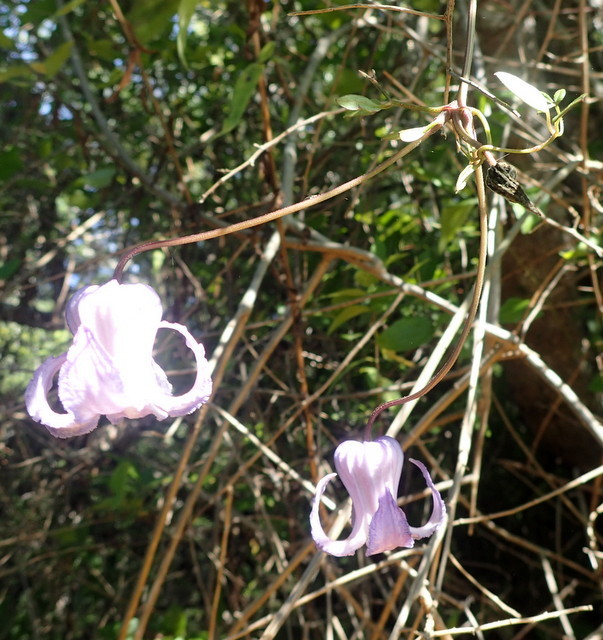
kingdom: Plantae
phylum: Tracheophyta
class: Magnoliopsida
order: Ranunculales
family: Ranunculaceae
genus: Clematis
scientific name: Clematis crispa
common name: Curly clematis
